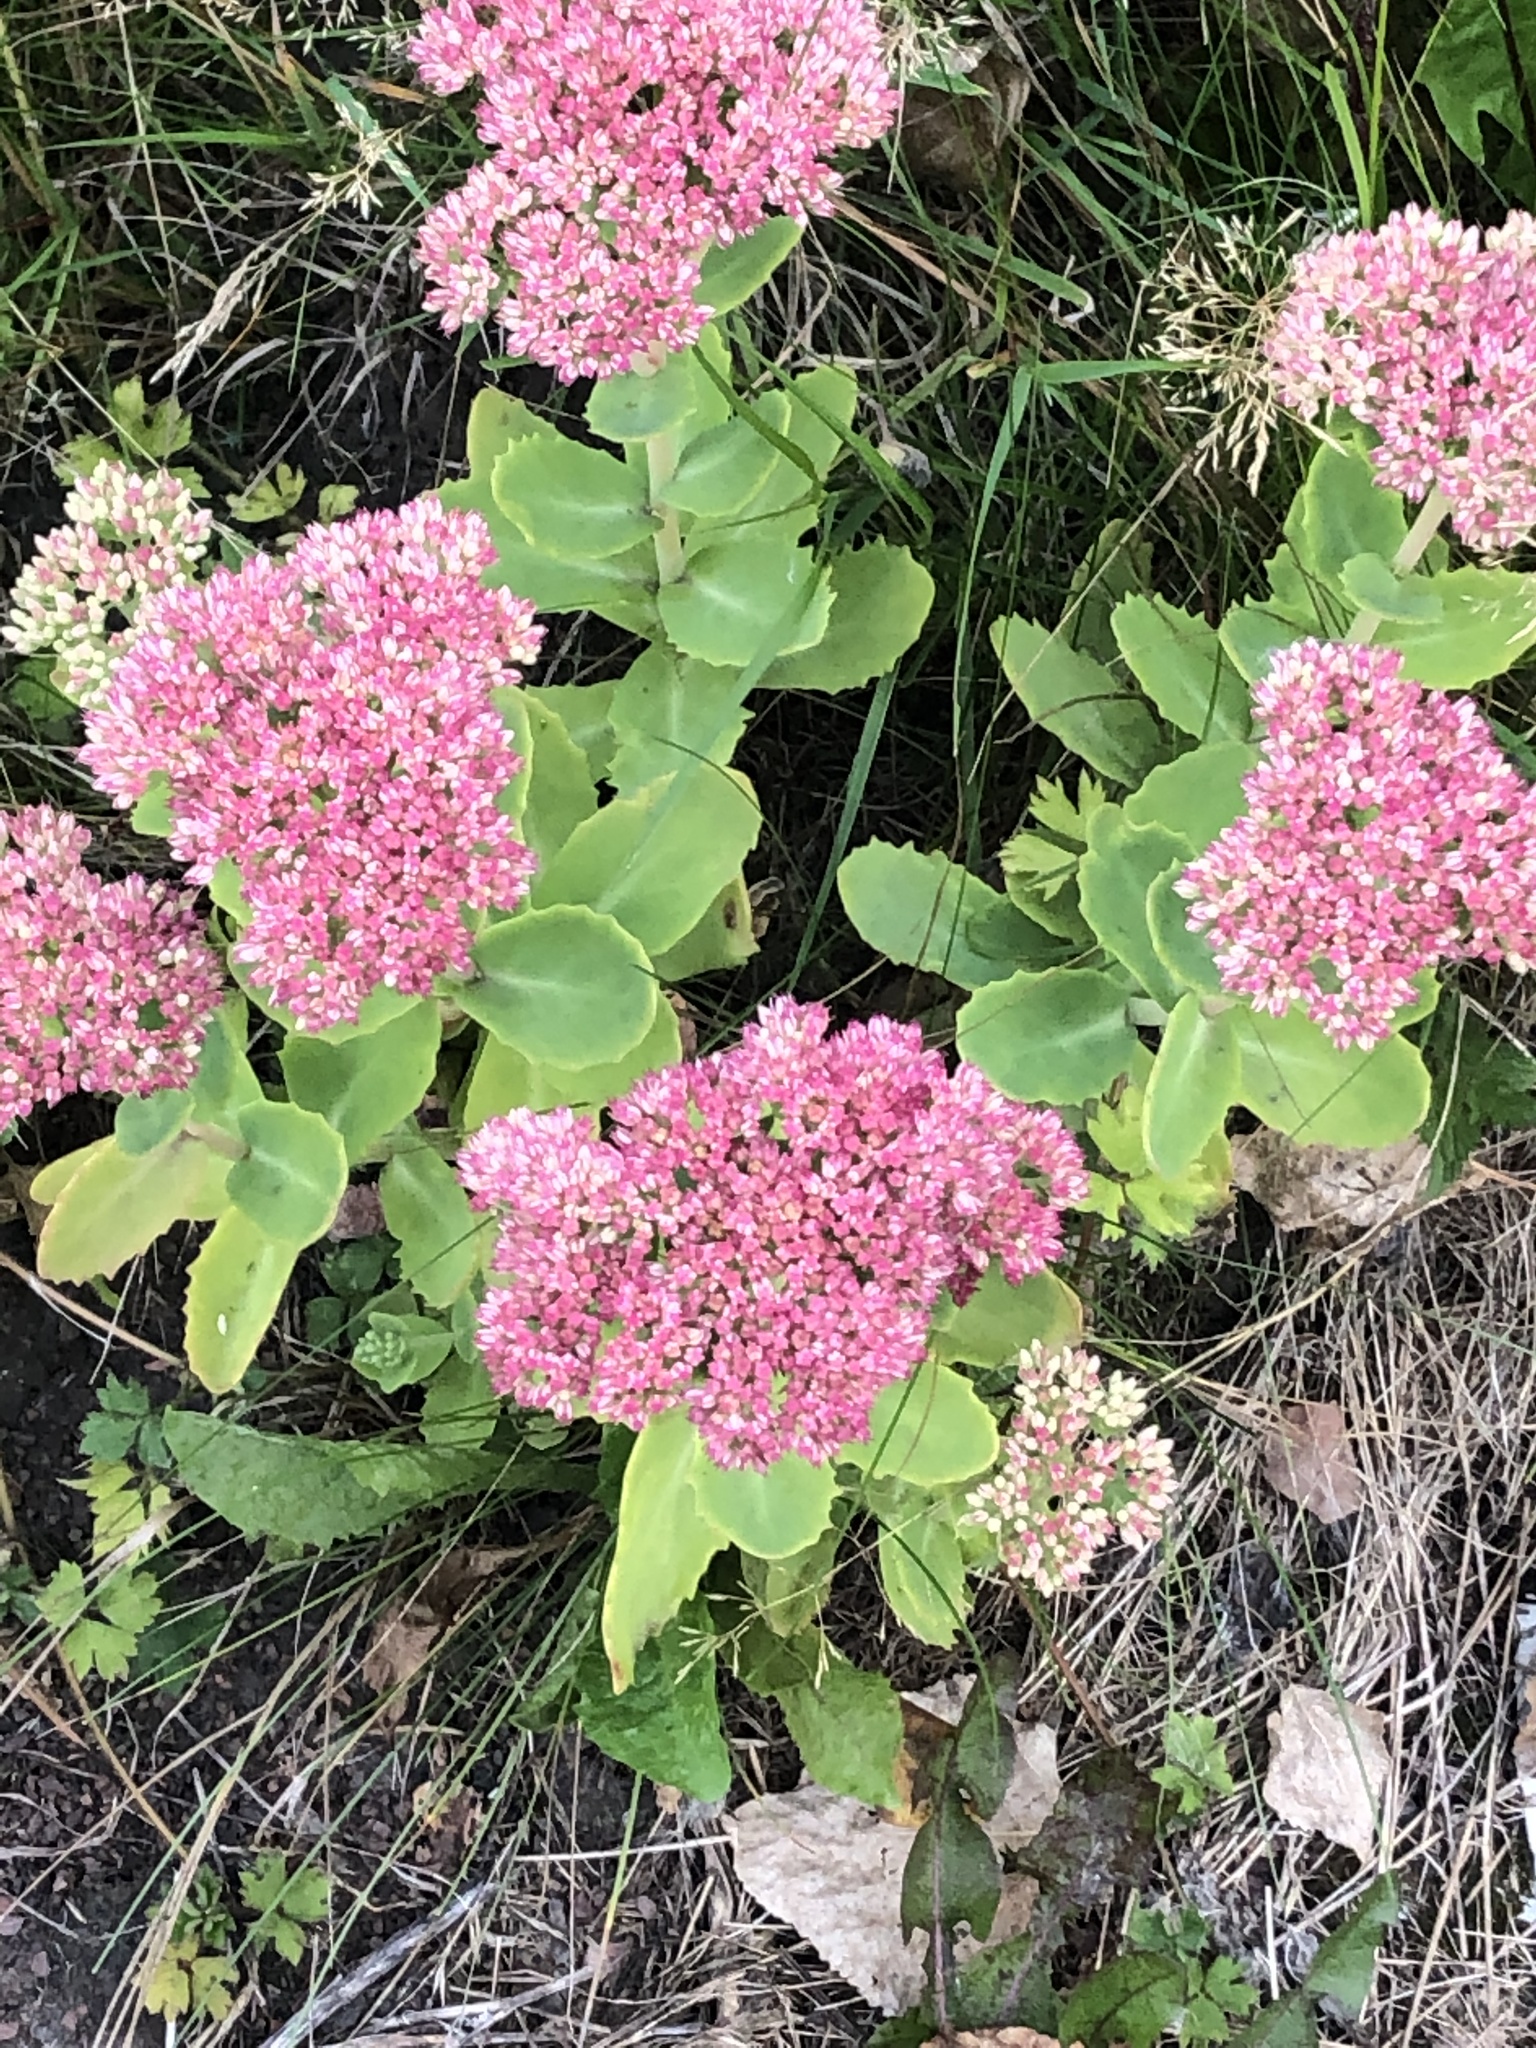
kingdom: Plantae
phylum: Tracheophyta
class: Magnoliopsida
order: Saxifragales
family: Crassulaceae
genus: Hylotelephium
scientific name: Hylotelephium
